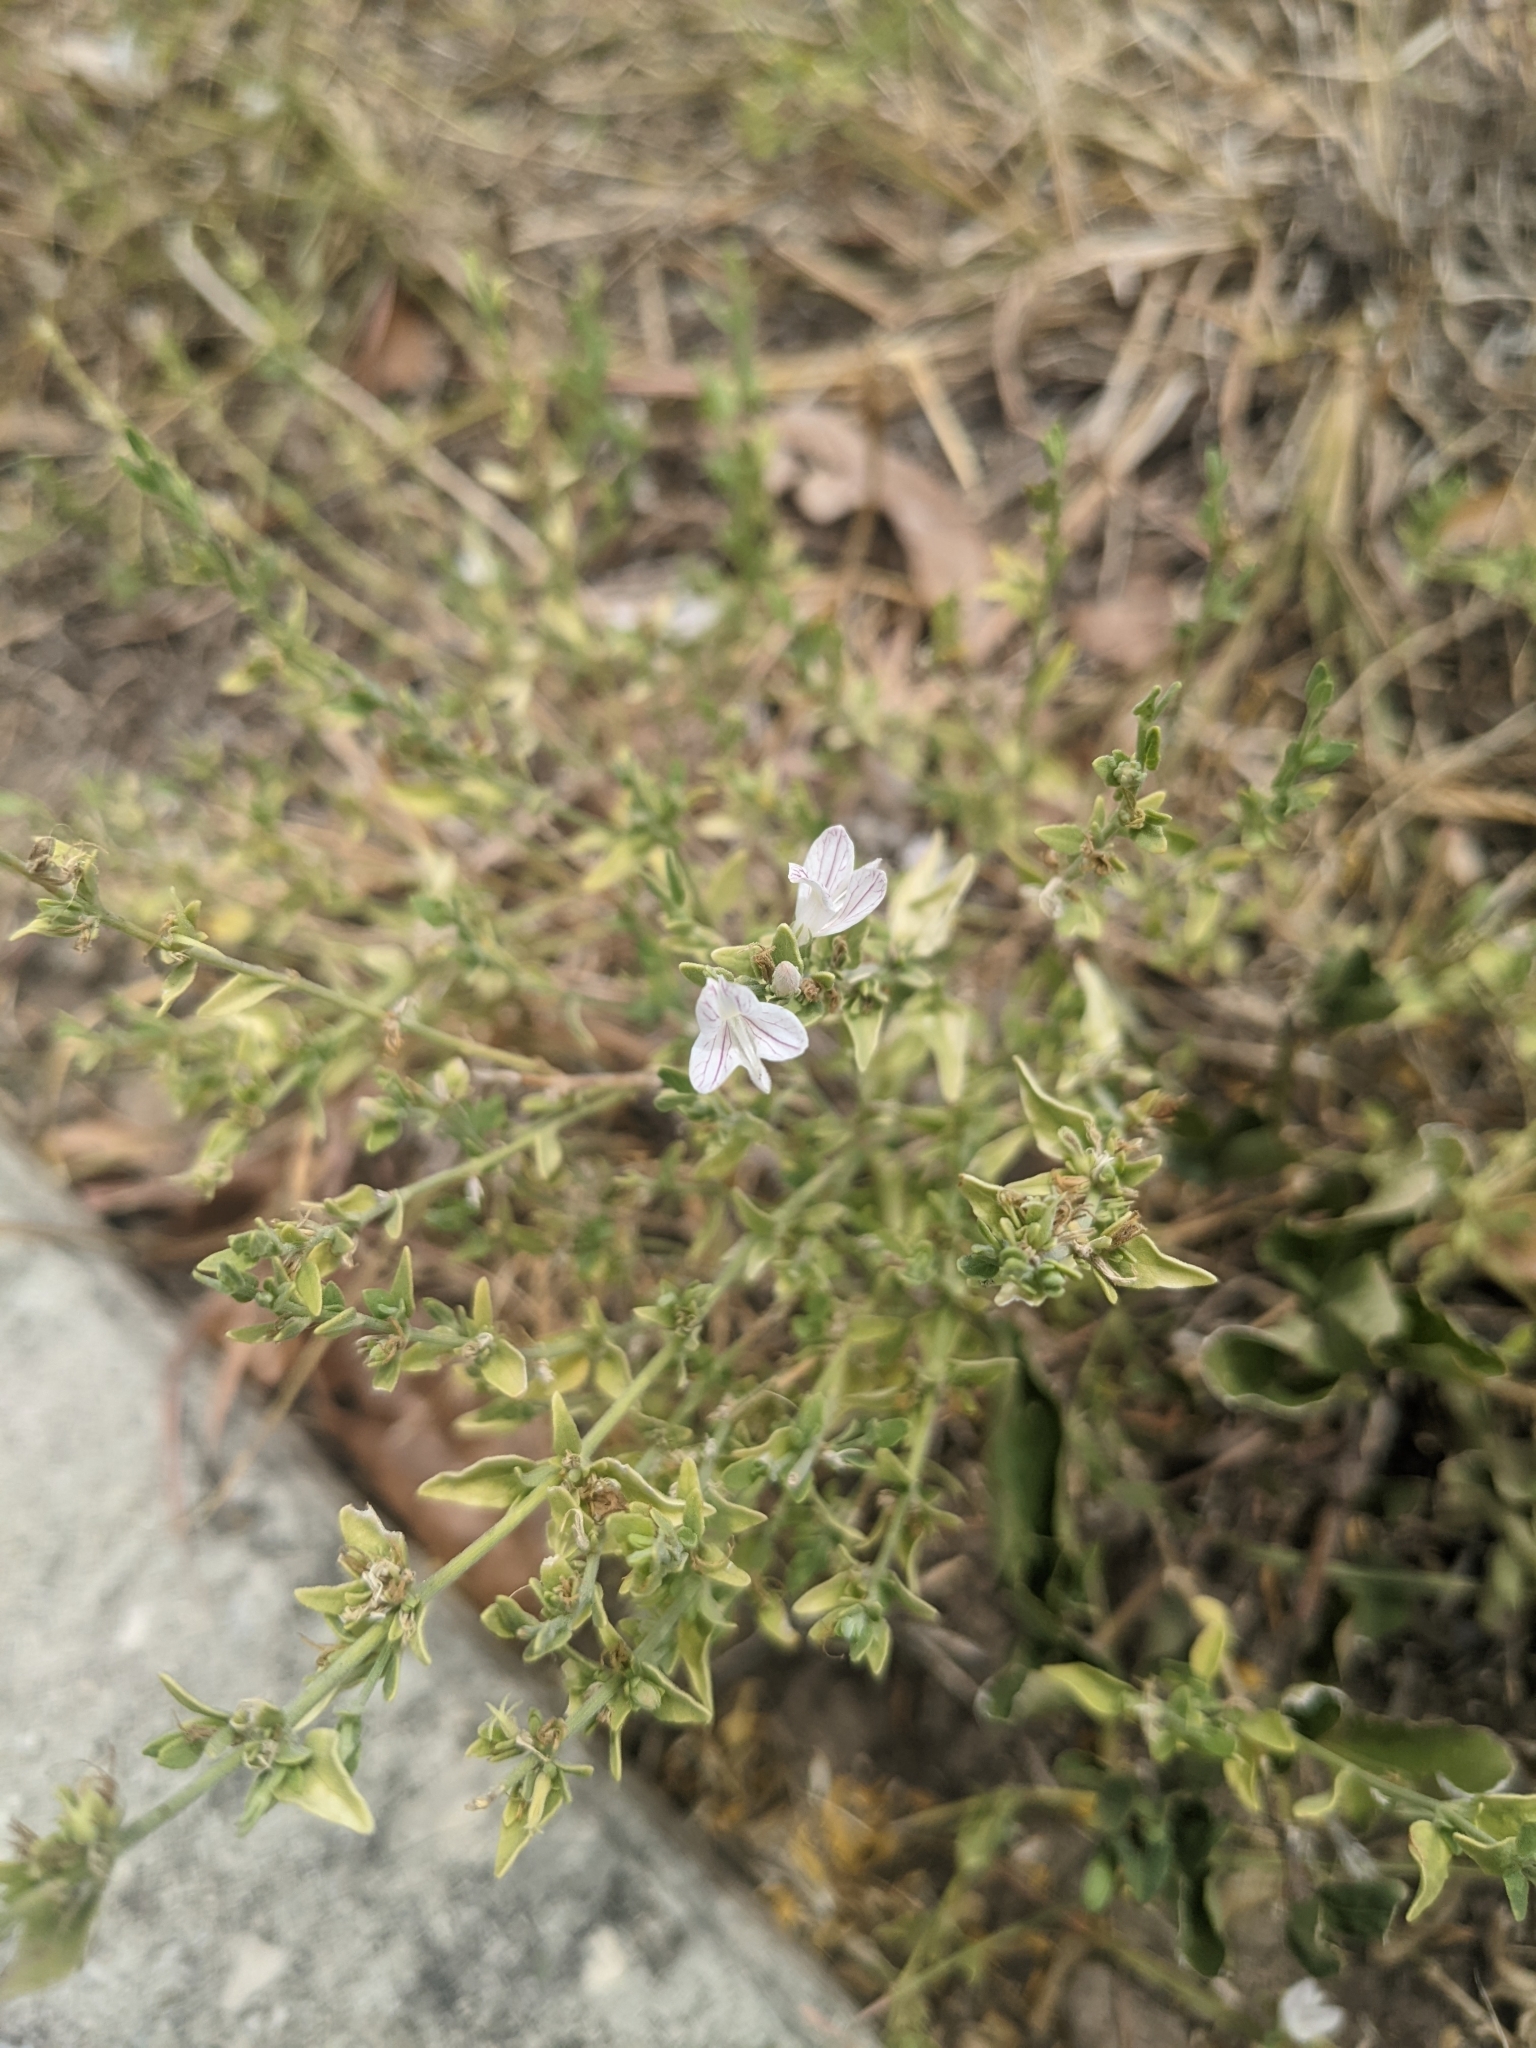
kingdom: Plantae
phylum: Tracheophyta
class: Magnoliopsida
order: Lamiales
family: Acanthaceae
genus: Carlowrightia
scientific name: Carlowrightia texana
